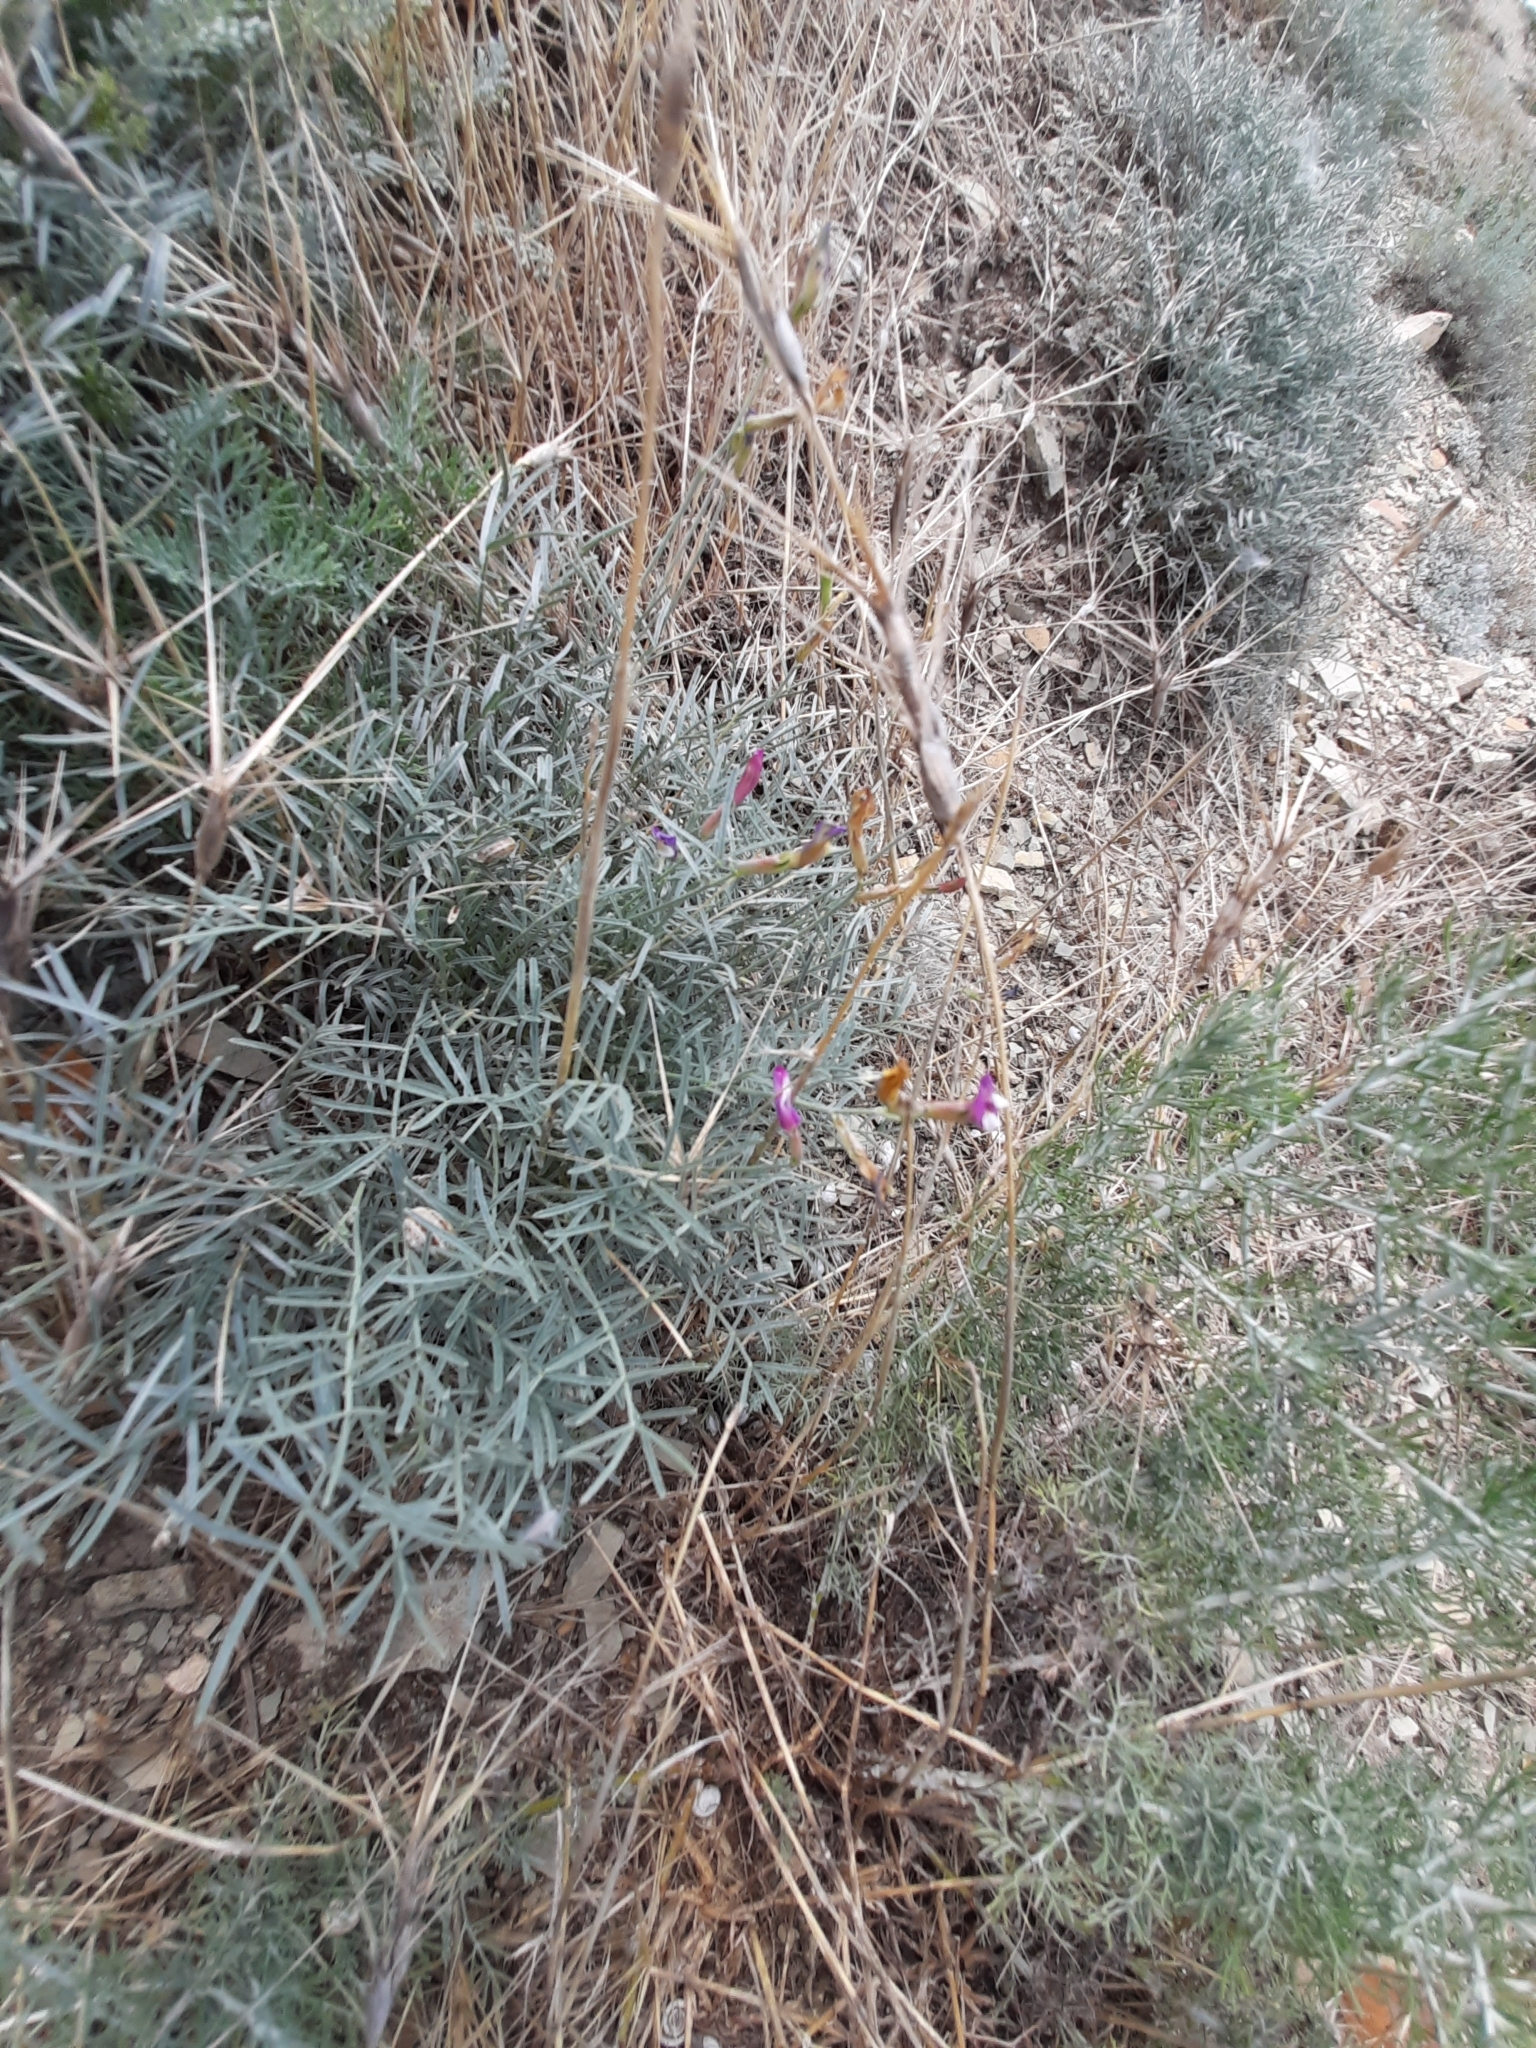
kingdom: Plantae
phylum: Tracheophyta
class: Magnoliopsida
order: Fabales
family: Fabaceae
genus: Astragalus
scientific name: Astragalus subuliformis
